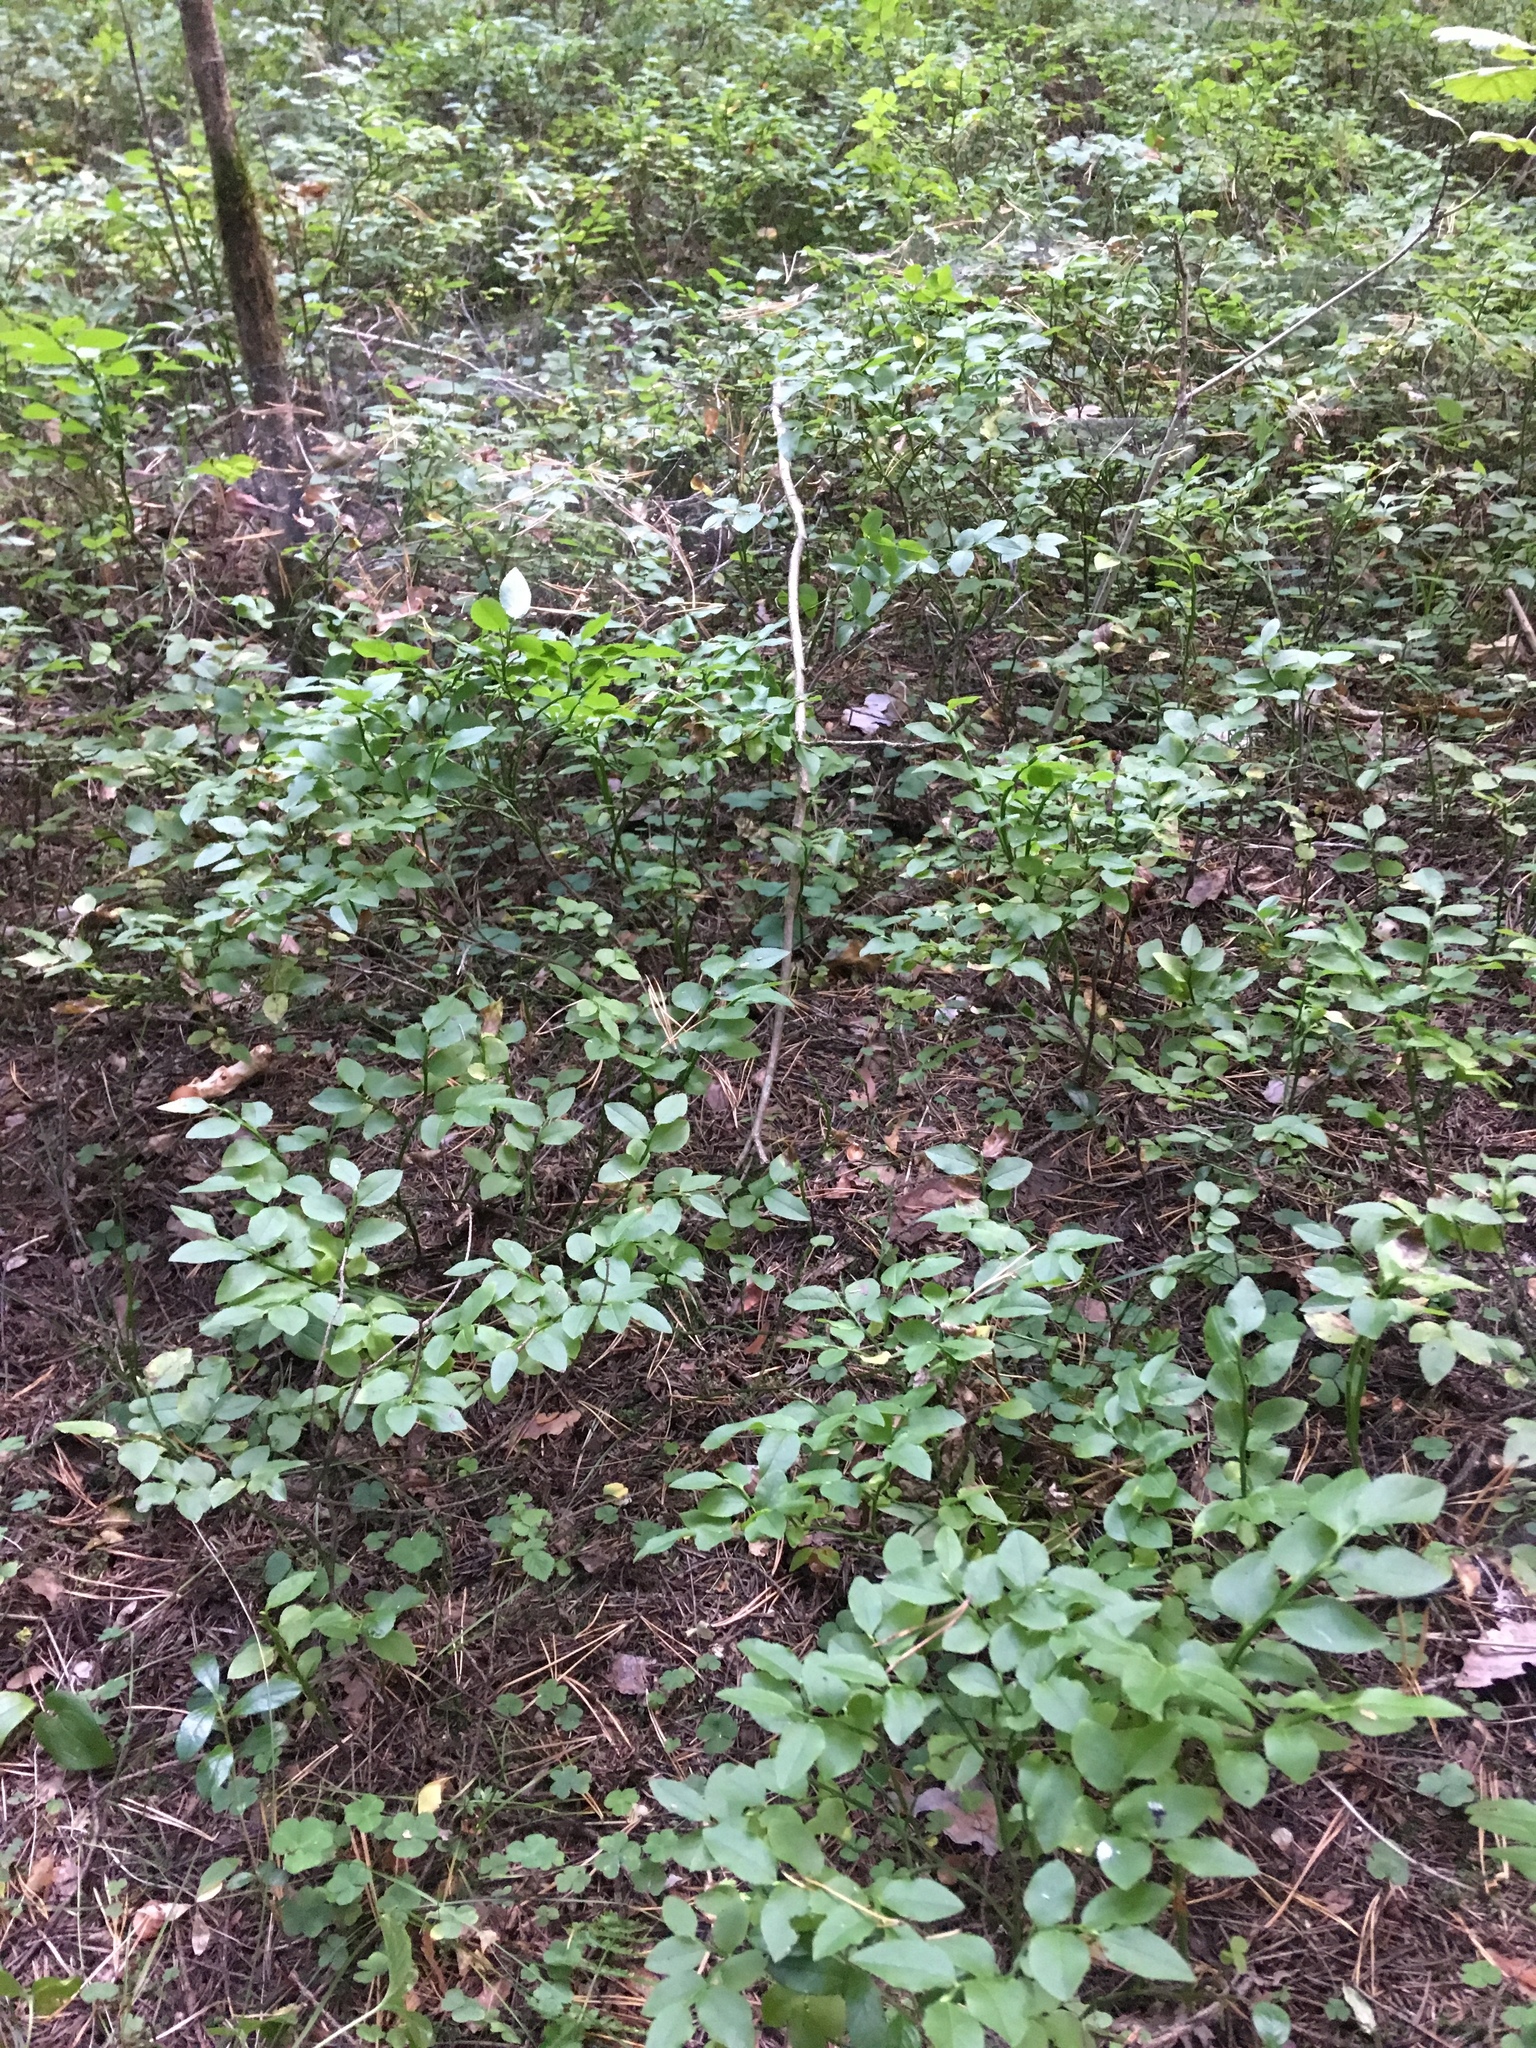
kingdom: Plantae
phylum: Tracheophyta
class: Magnoliopsida
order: Ericales
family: Ericaceae
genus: Vaccinium
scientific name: Vaccinium myrtillus
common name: Bilberry
